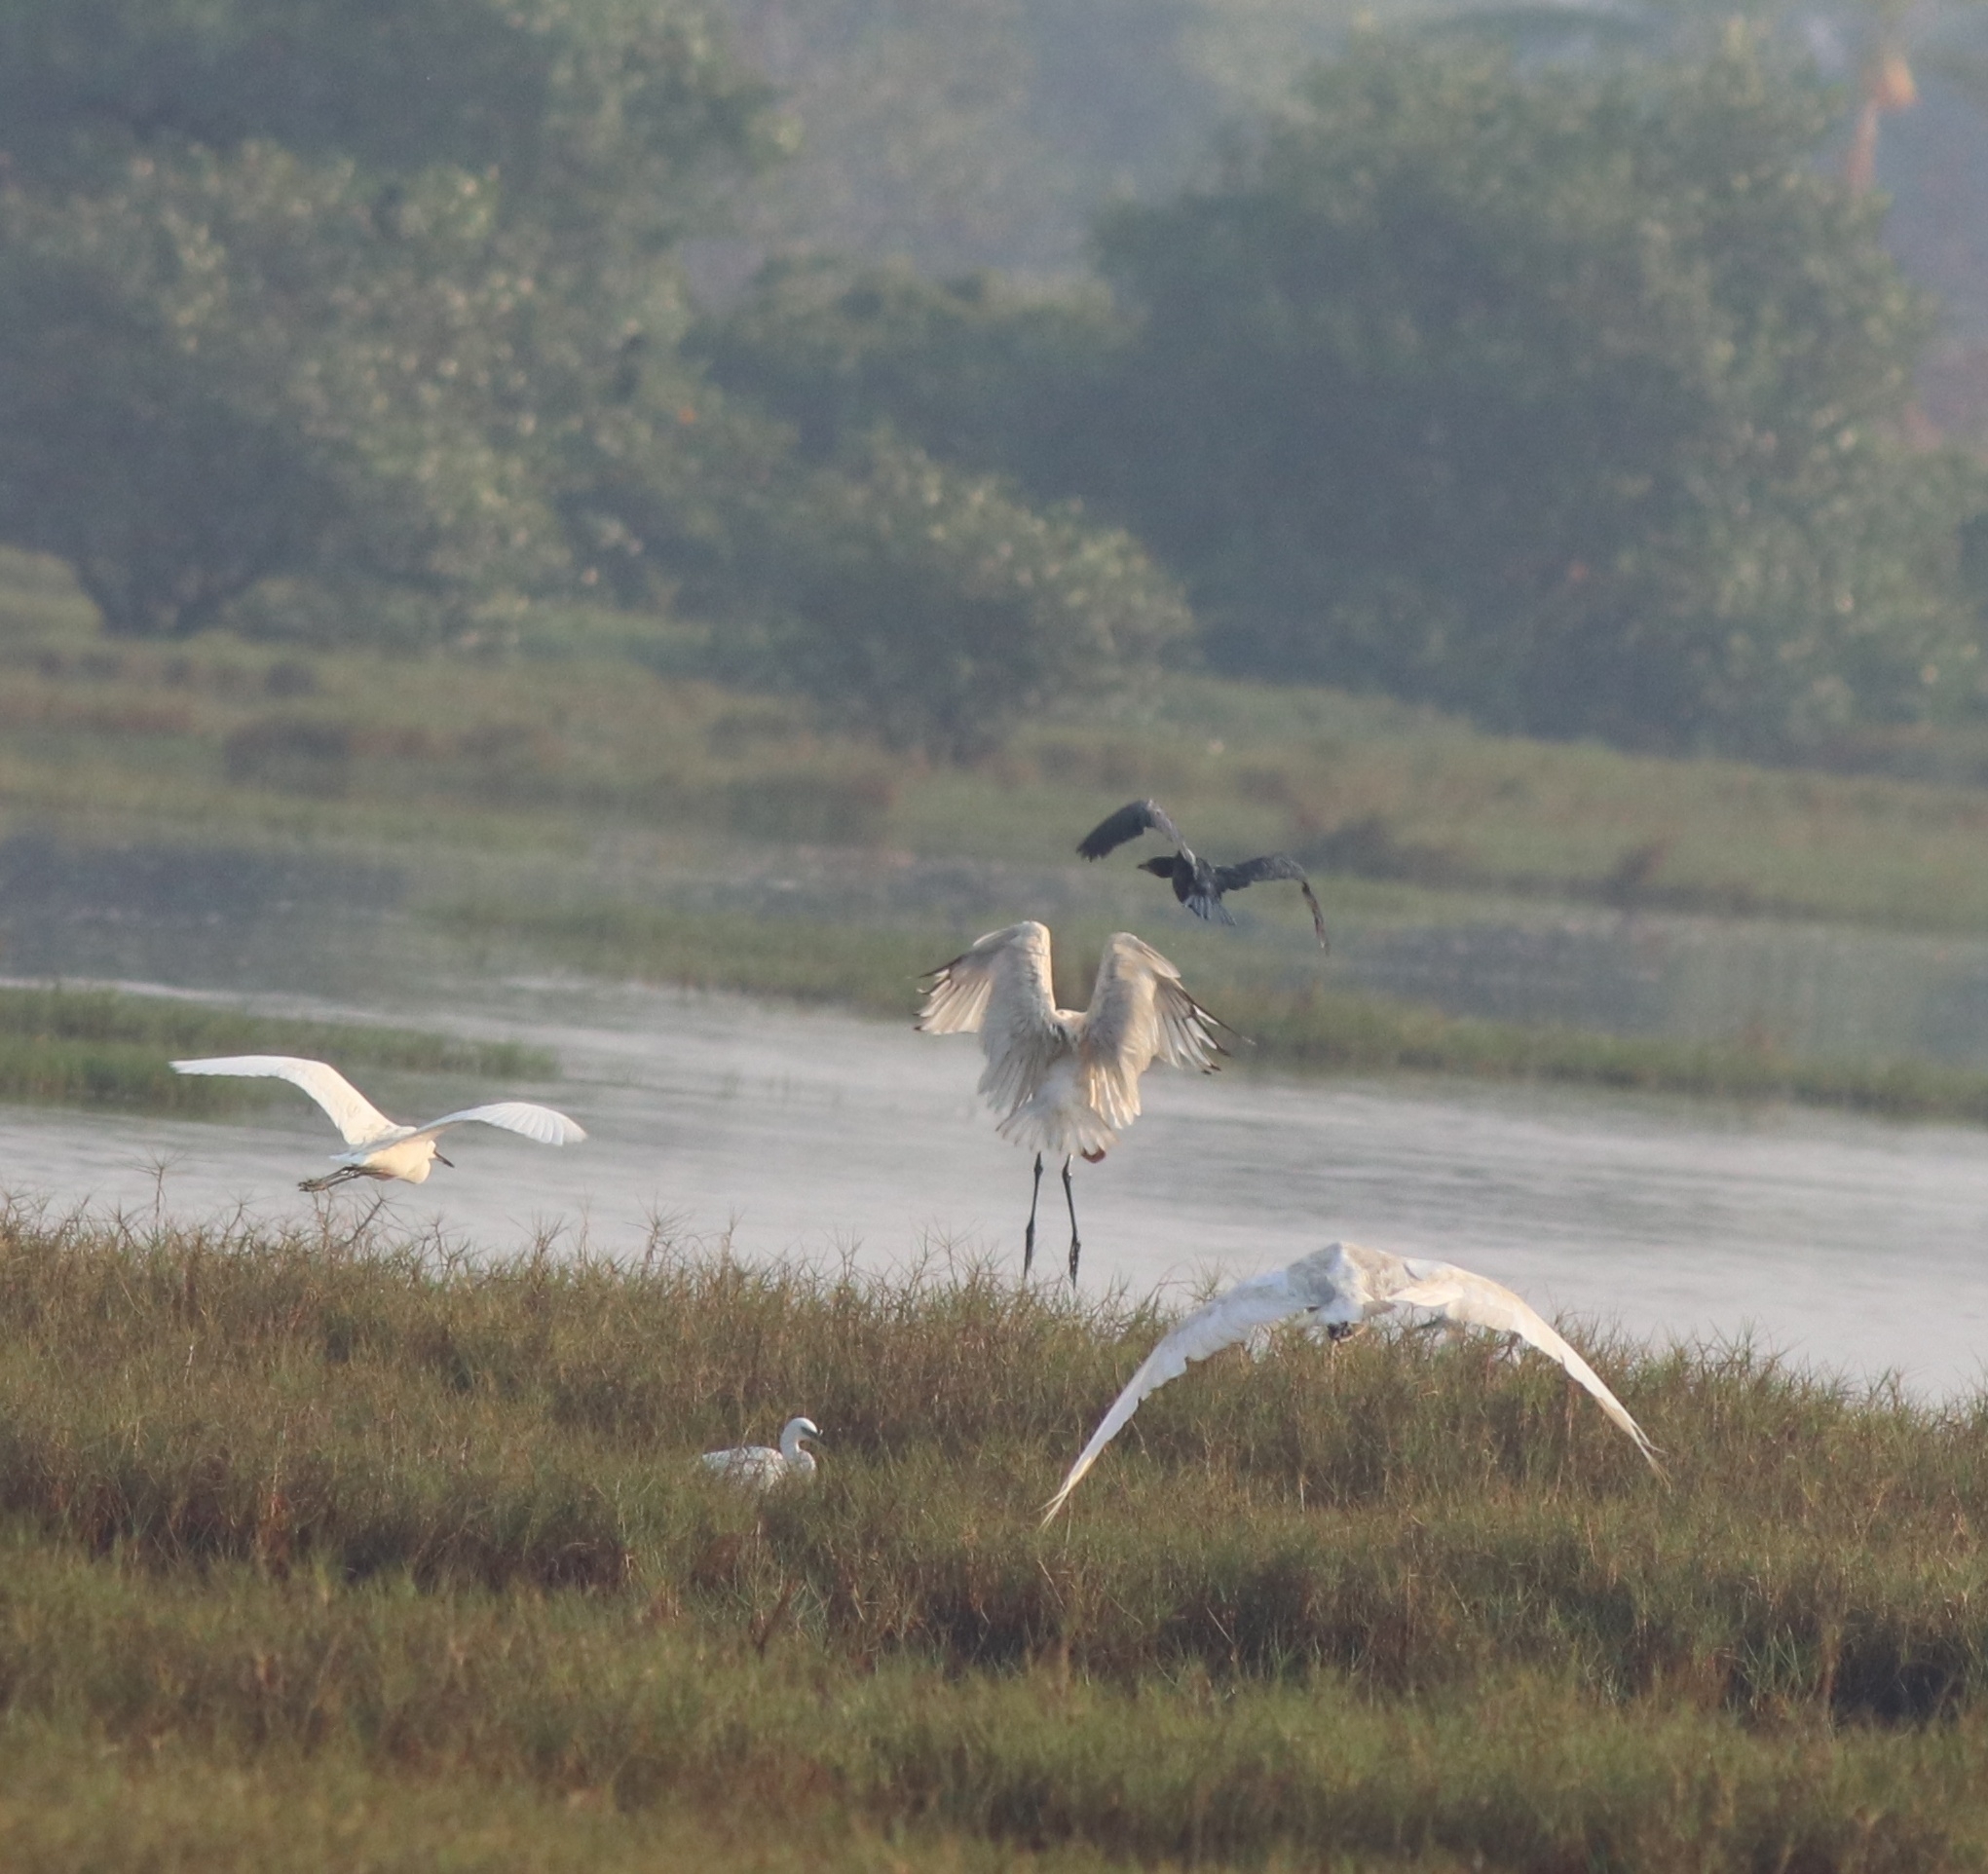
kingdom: Animalia
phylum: Chordata
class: Aves
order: Pelecaniformes
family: Threskiornithidae
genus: Threskiornis
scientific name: Threskiornis melanocephalus
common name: Black-headed ibis
